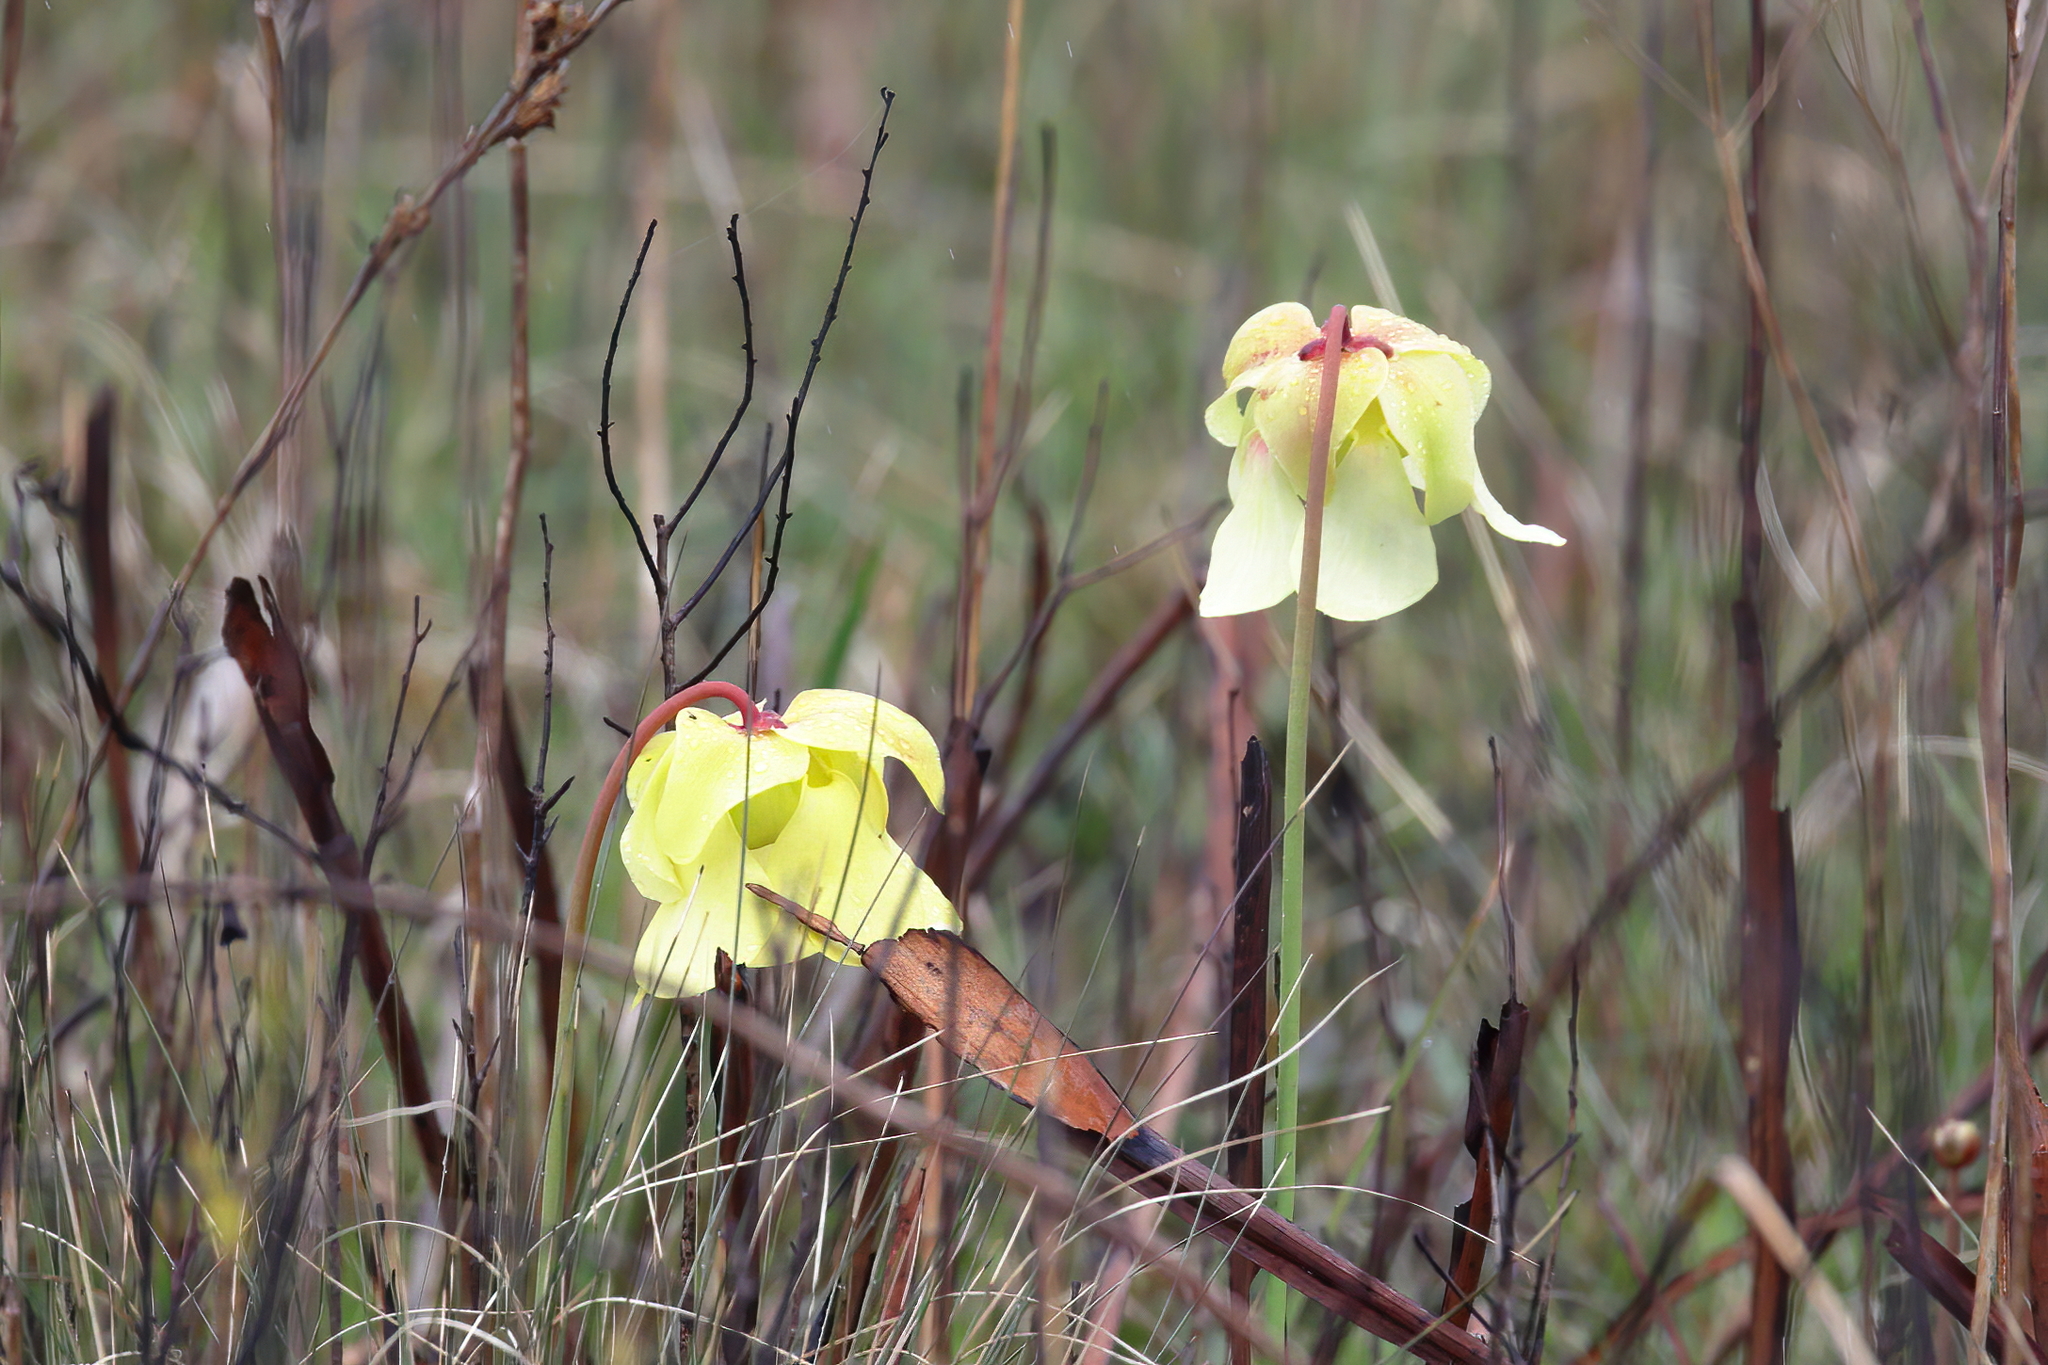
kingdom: Plantae
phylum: Tracheophyta
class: Magnoliopsida
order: Ericales
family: Sarraceniaceae
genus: Sarracenia
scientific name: Sarracenia alata
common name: Yellow trumpets
